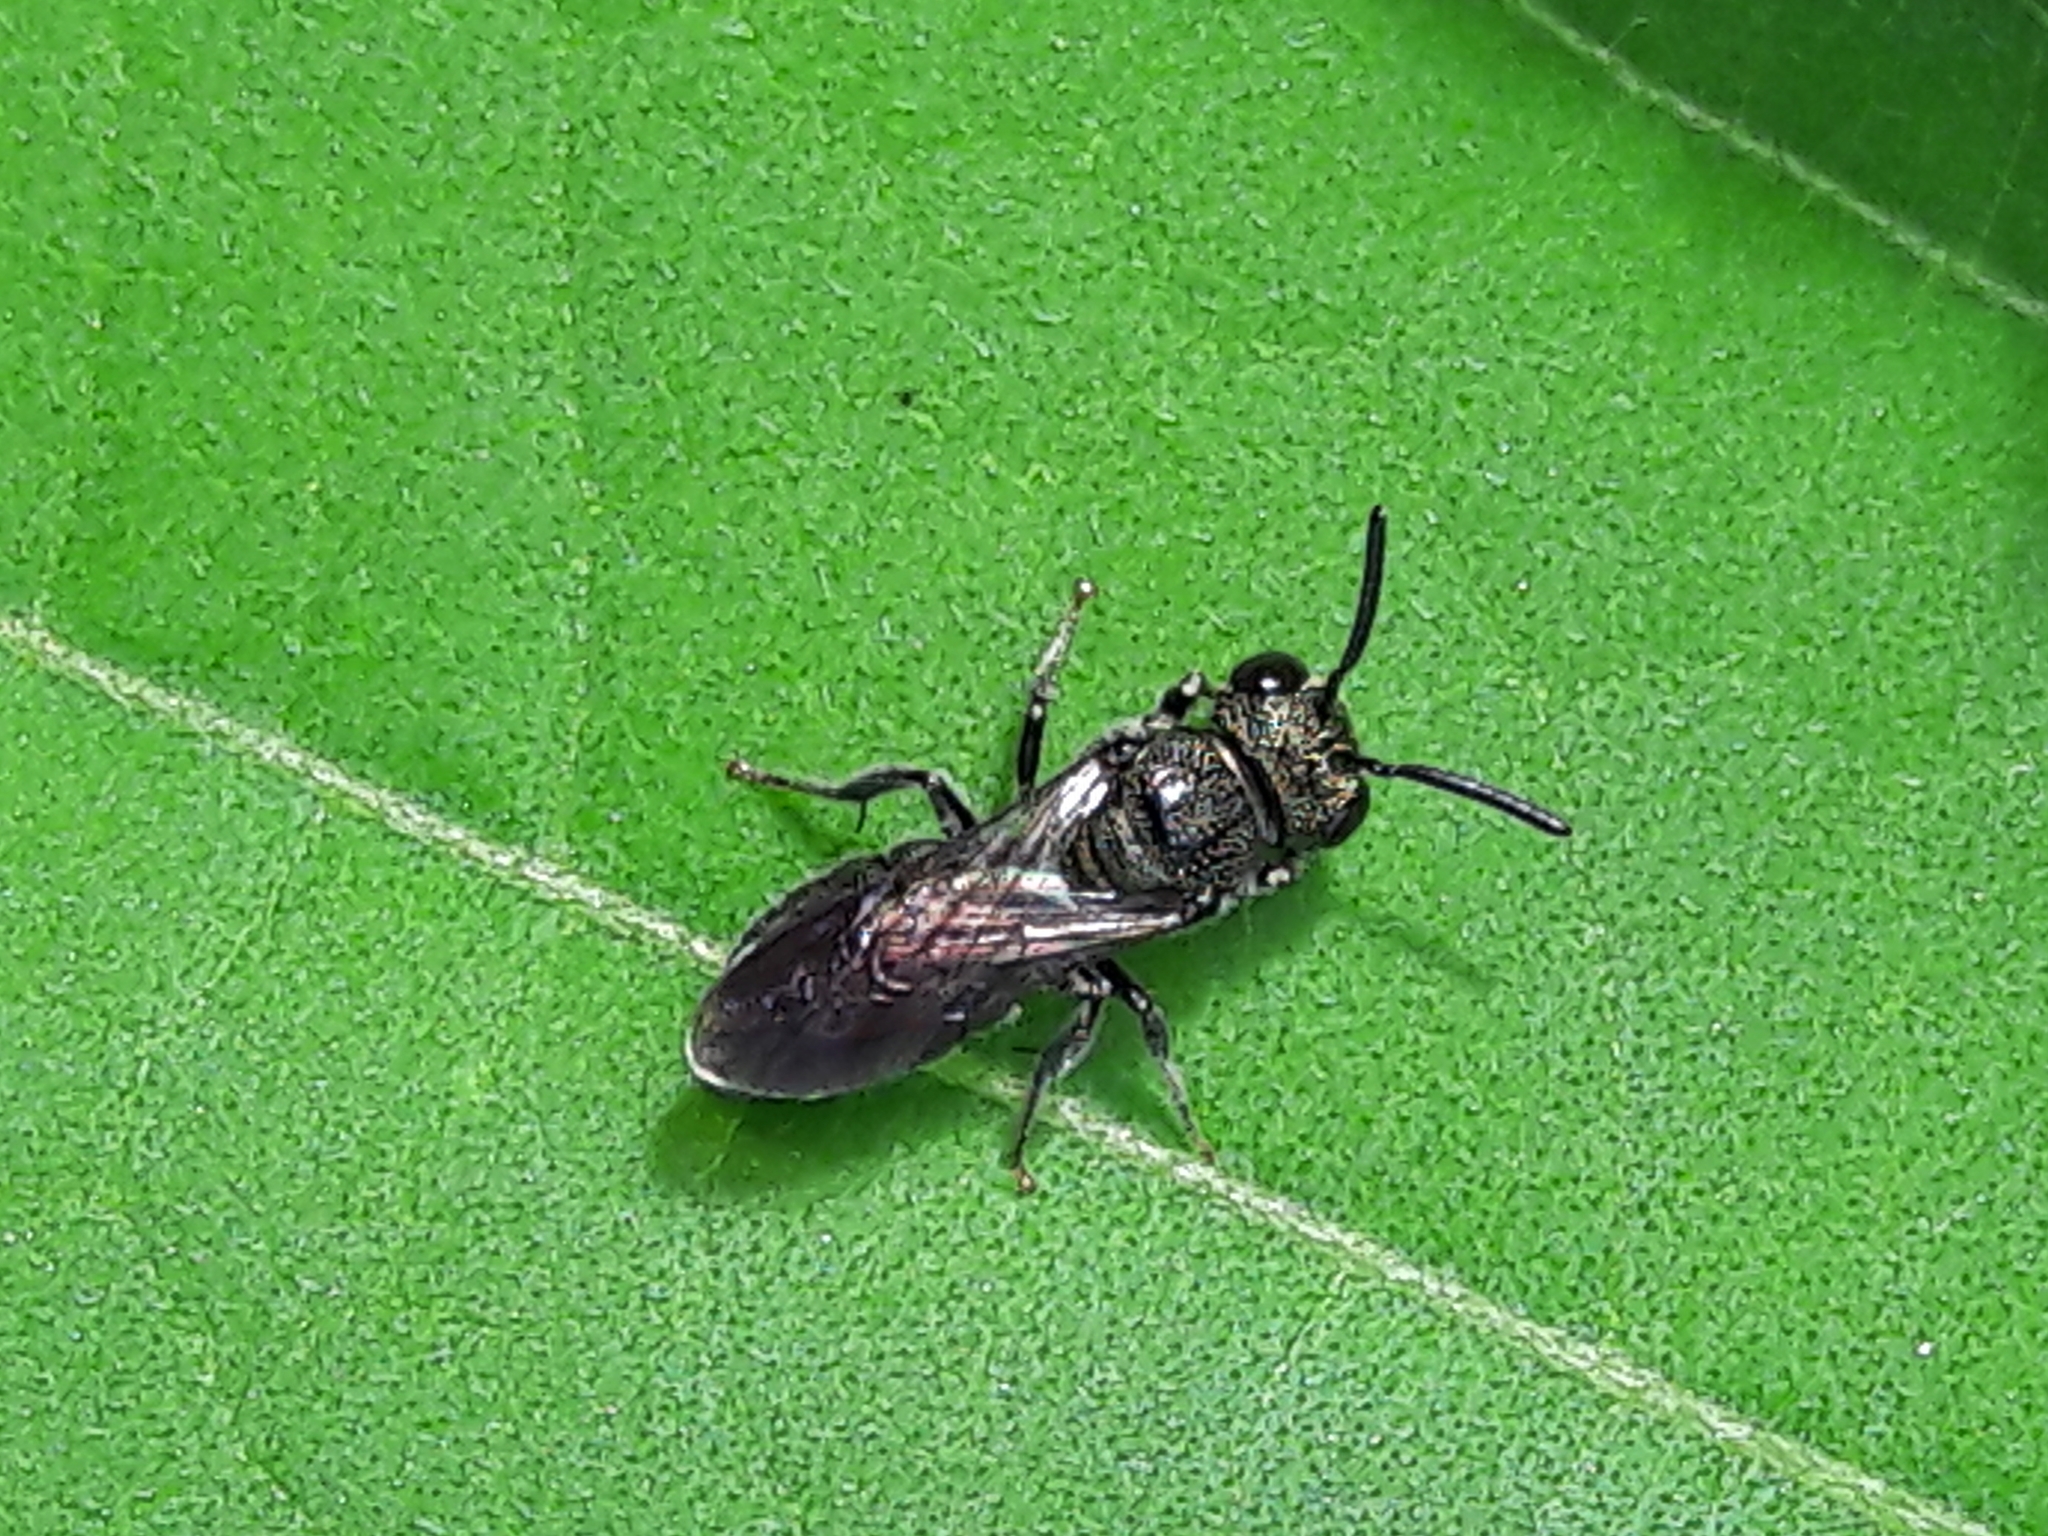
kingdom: Animalia
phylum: Arthropoda
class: Insecta
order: Hymenoptera
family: Apidae
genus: Ceratina
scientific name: Ceratina
